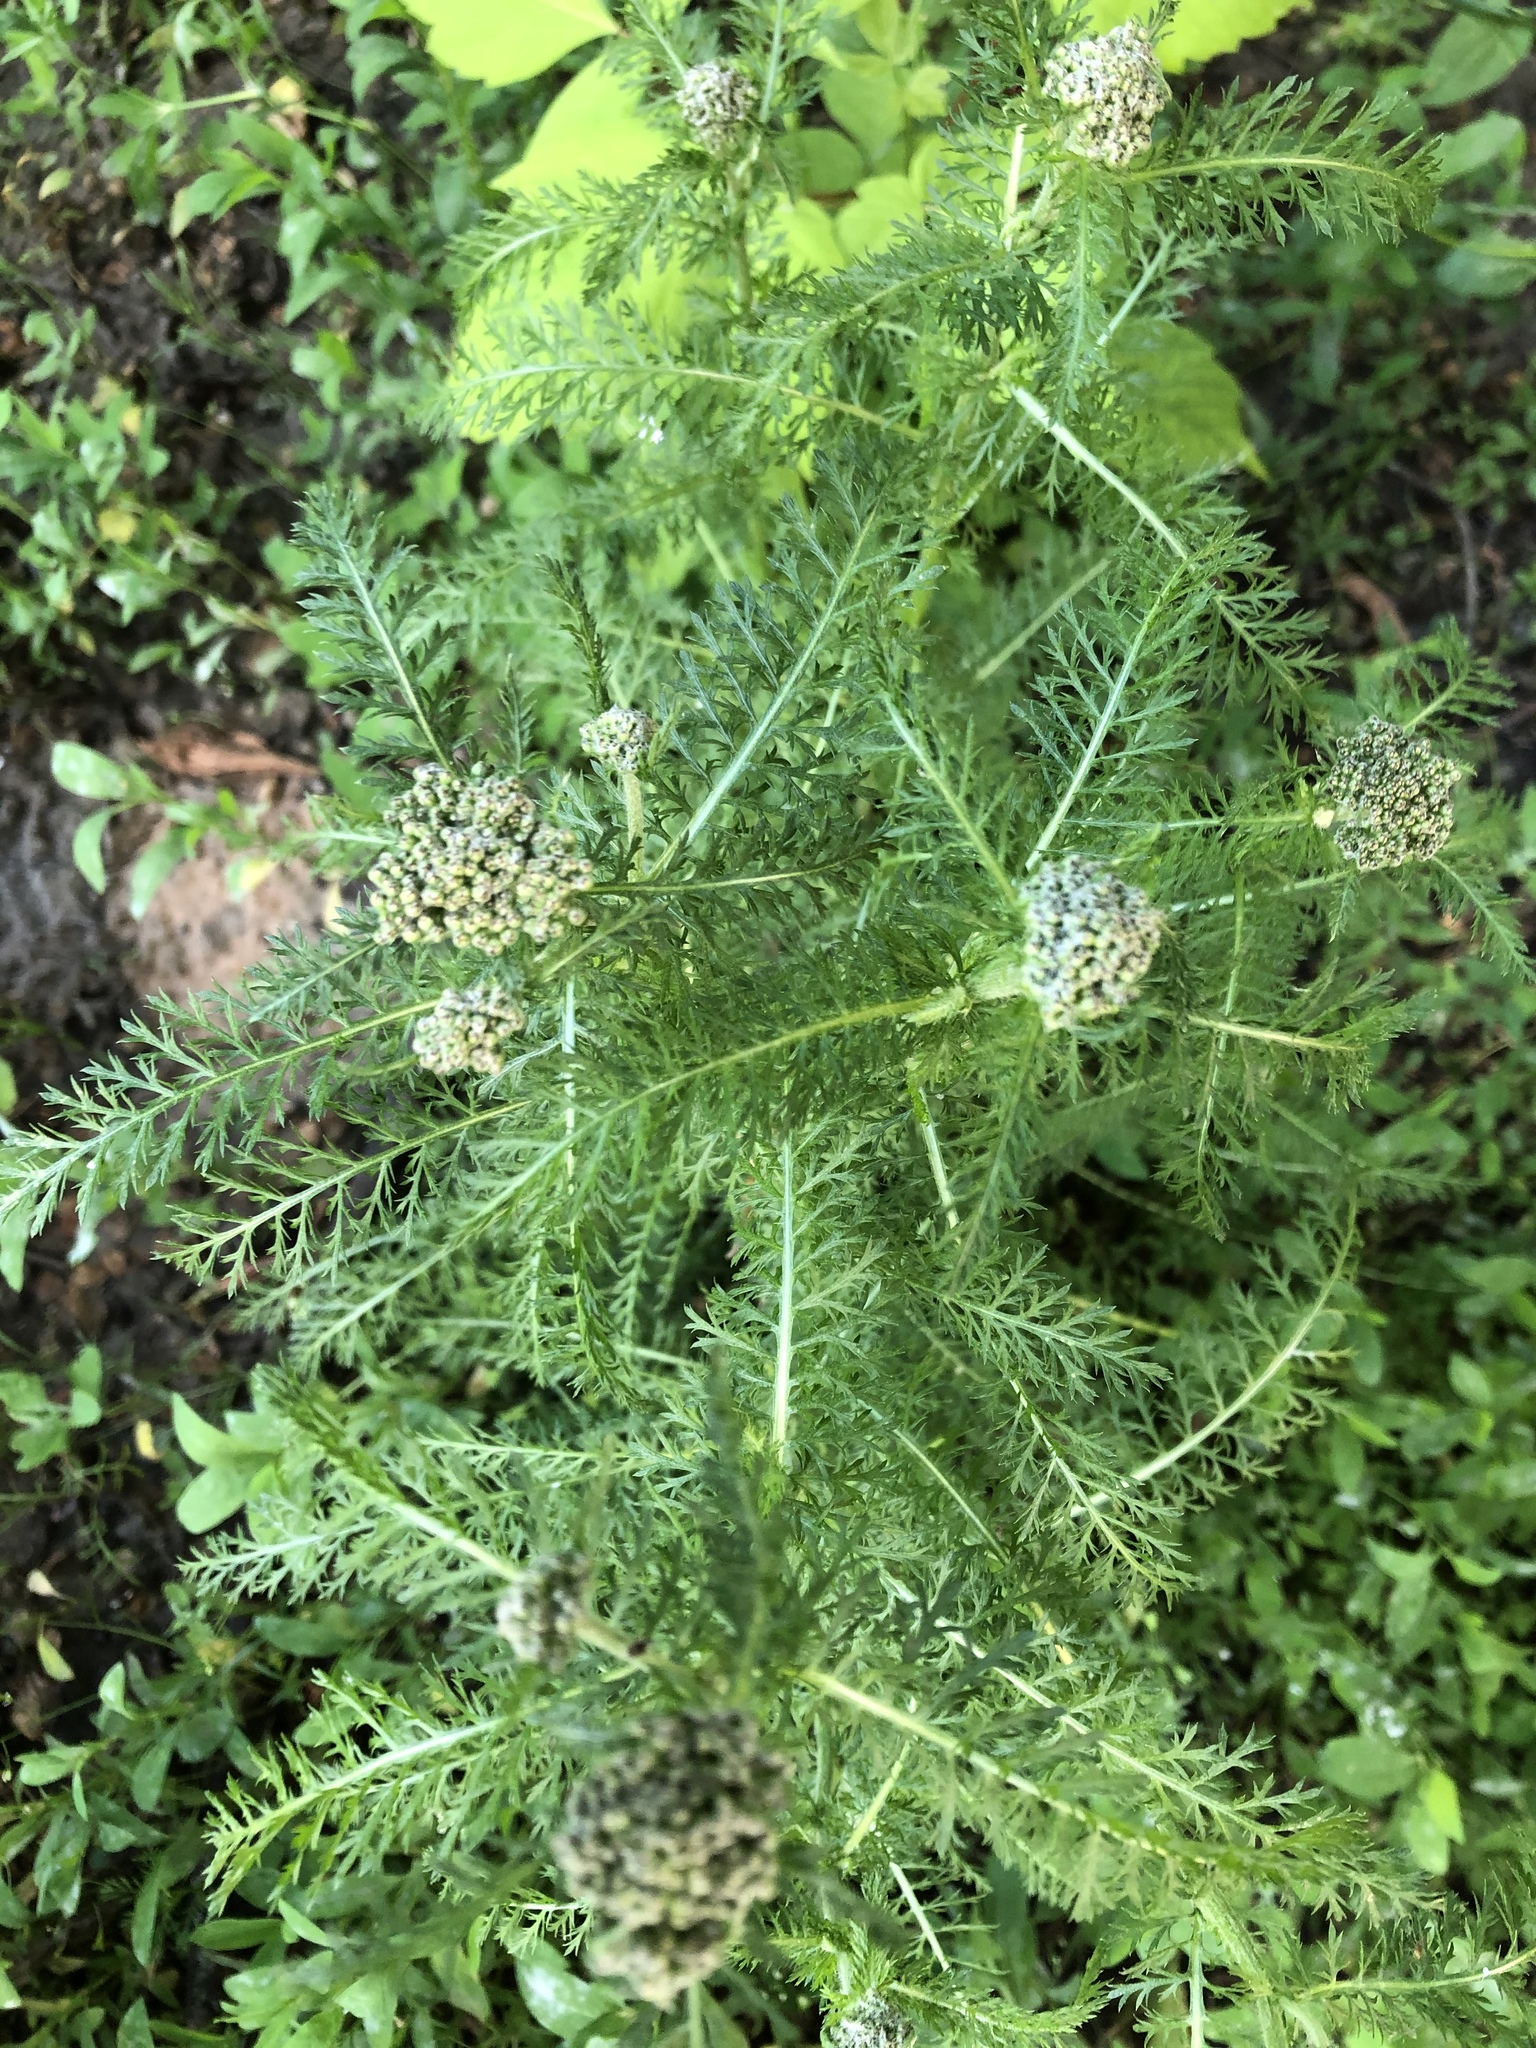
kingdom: Plantae
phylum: Tracheophyta
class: Magnoliopsida
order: Asterales
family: Asteraceae
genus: Achillea
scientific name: Achillea millefolium
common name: Yarrow
